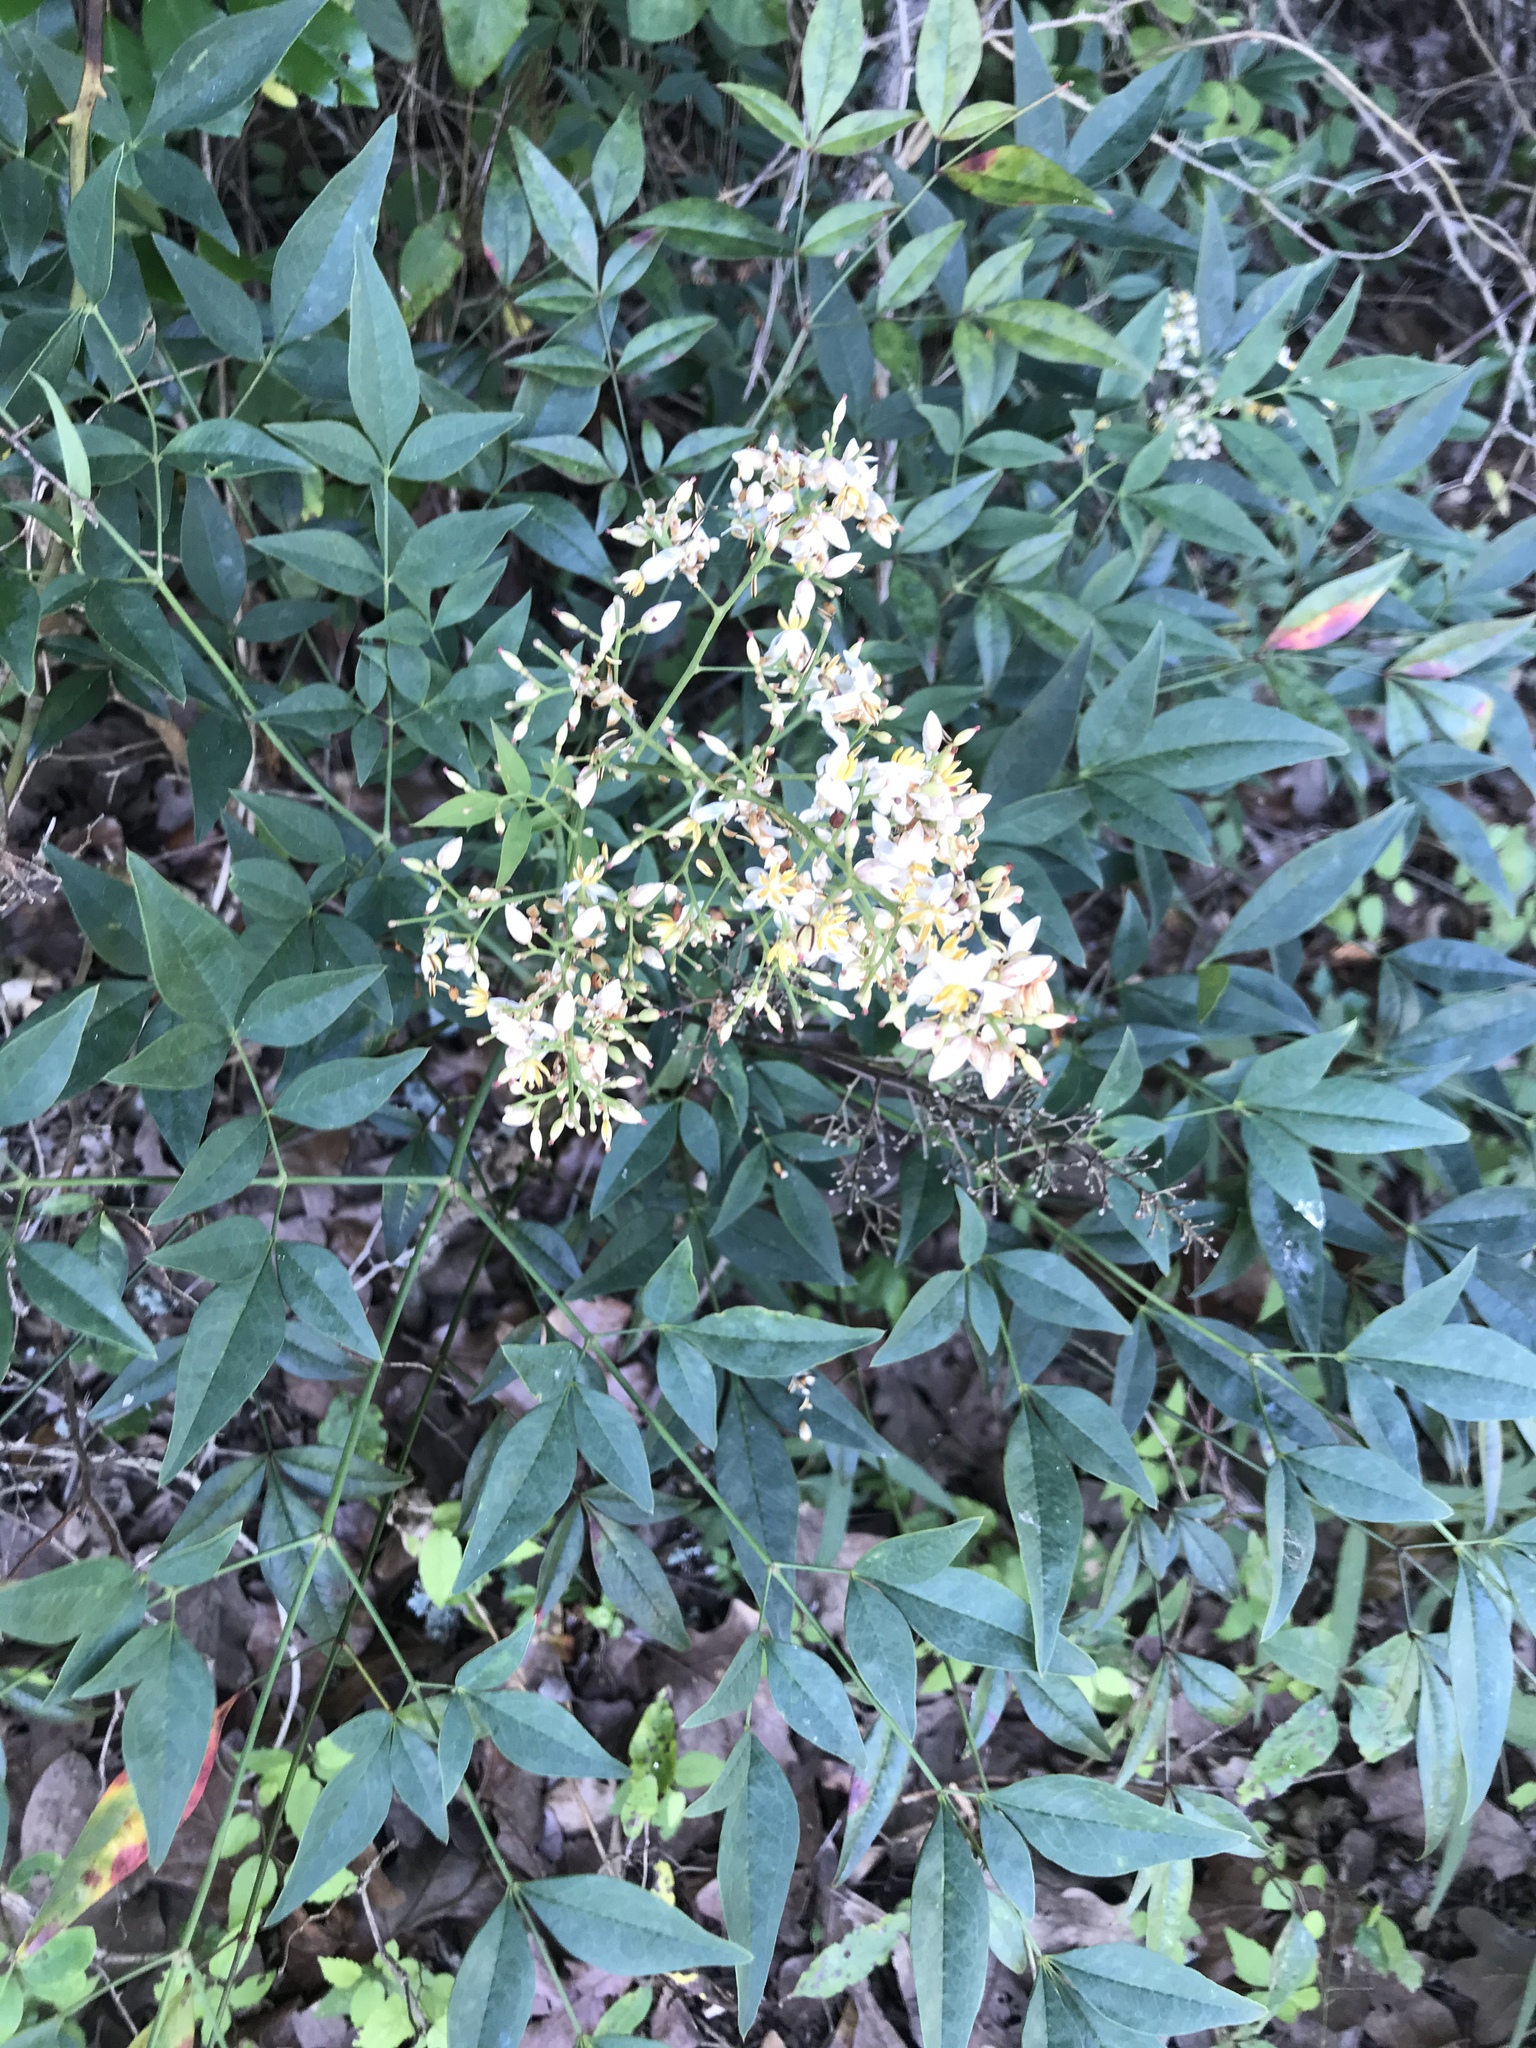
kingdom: Plantae
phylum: Tracheophyta
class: Magnoliopsida
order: Ranunculales
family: Berberidaceae
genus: Nandina
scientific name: Nandina domestica
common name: Sacred bamboo
